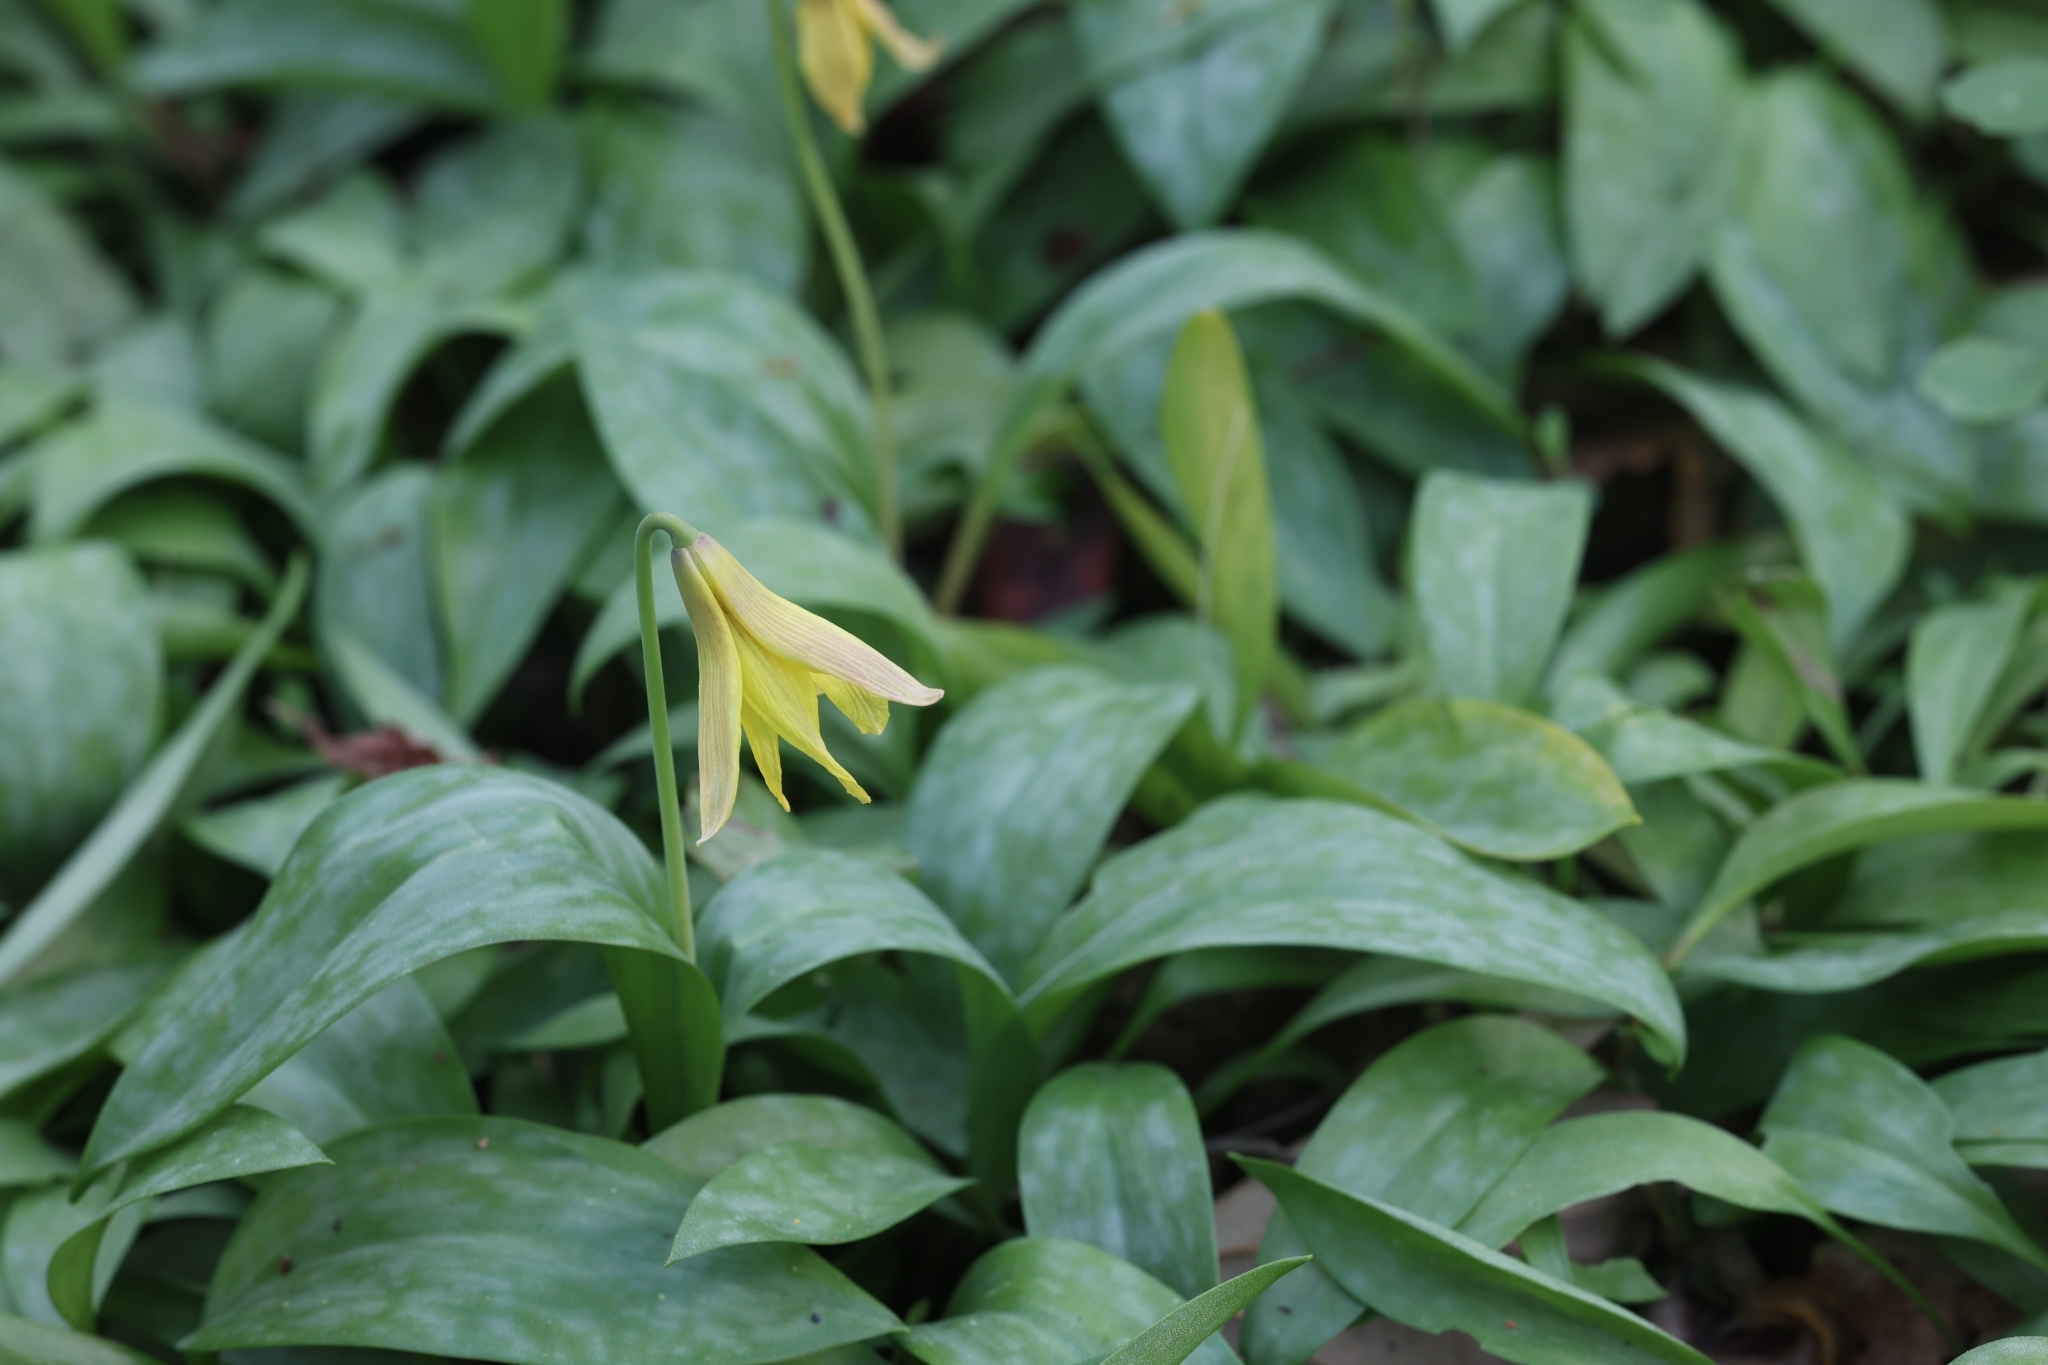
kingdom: Plantae
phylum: Tracheophyta
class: Liliopsida
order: Liliales
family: Liliaceae
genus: Erythronium
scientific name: Erythronium americanum
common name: Yellow adder's-tongue
